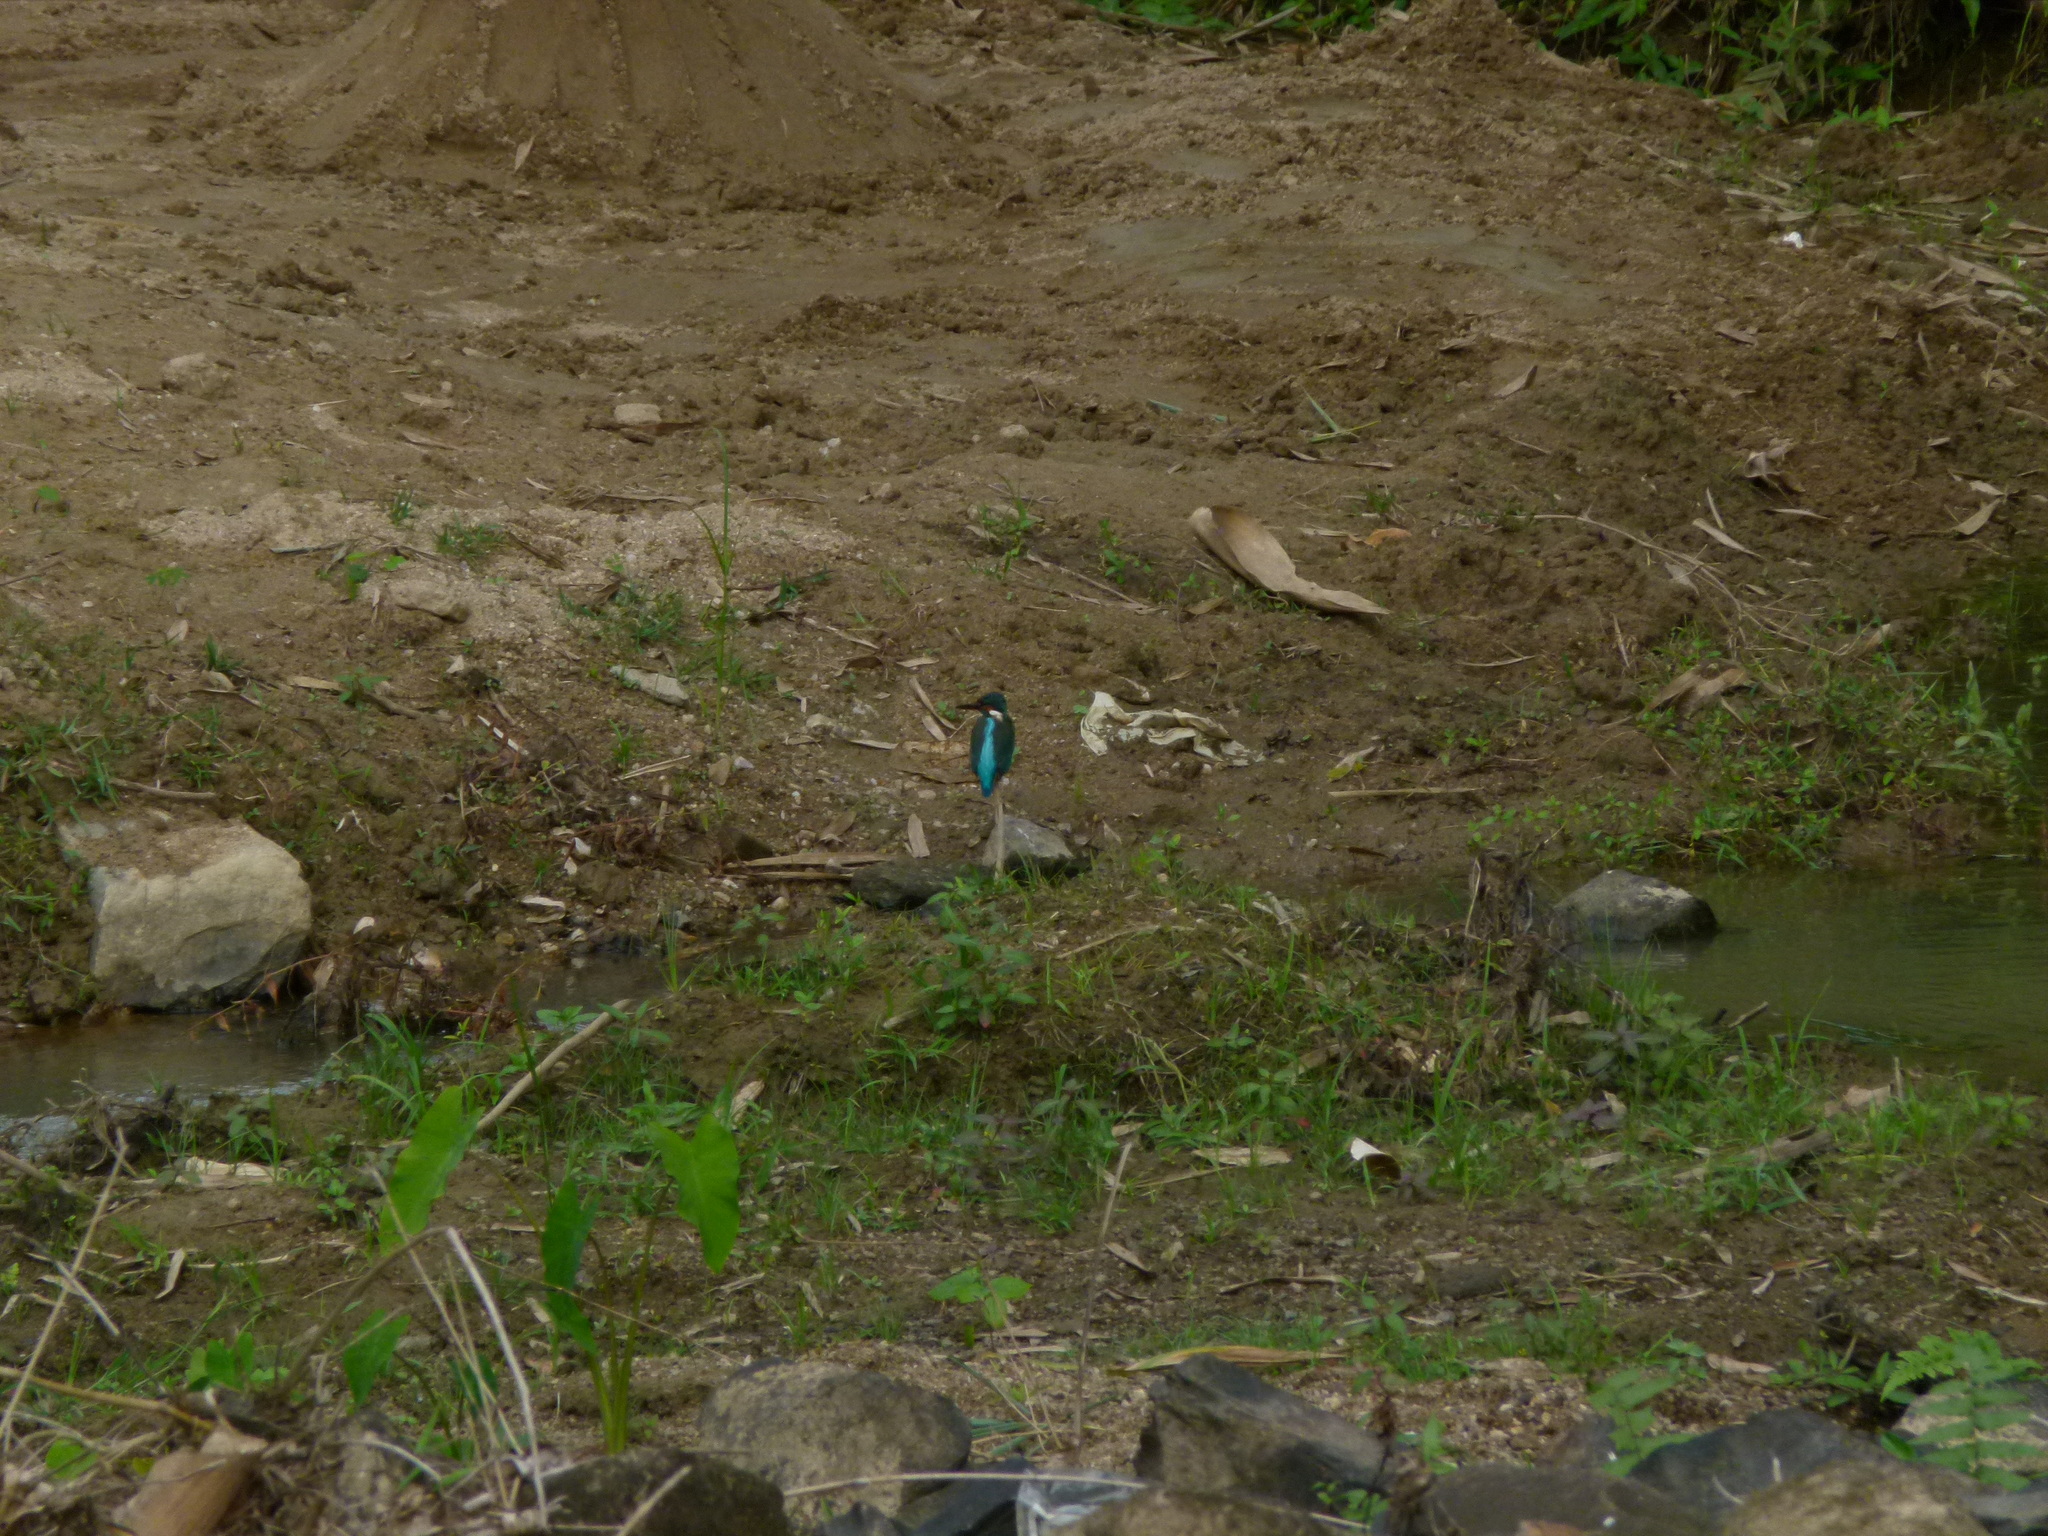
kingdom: Animalia
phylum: Chordata
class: Aves
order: Coraciiformes
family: Alcedinidae
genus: Alcedo
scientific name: Alcedo atthis
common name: Common kingfisher
